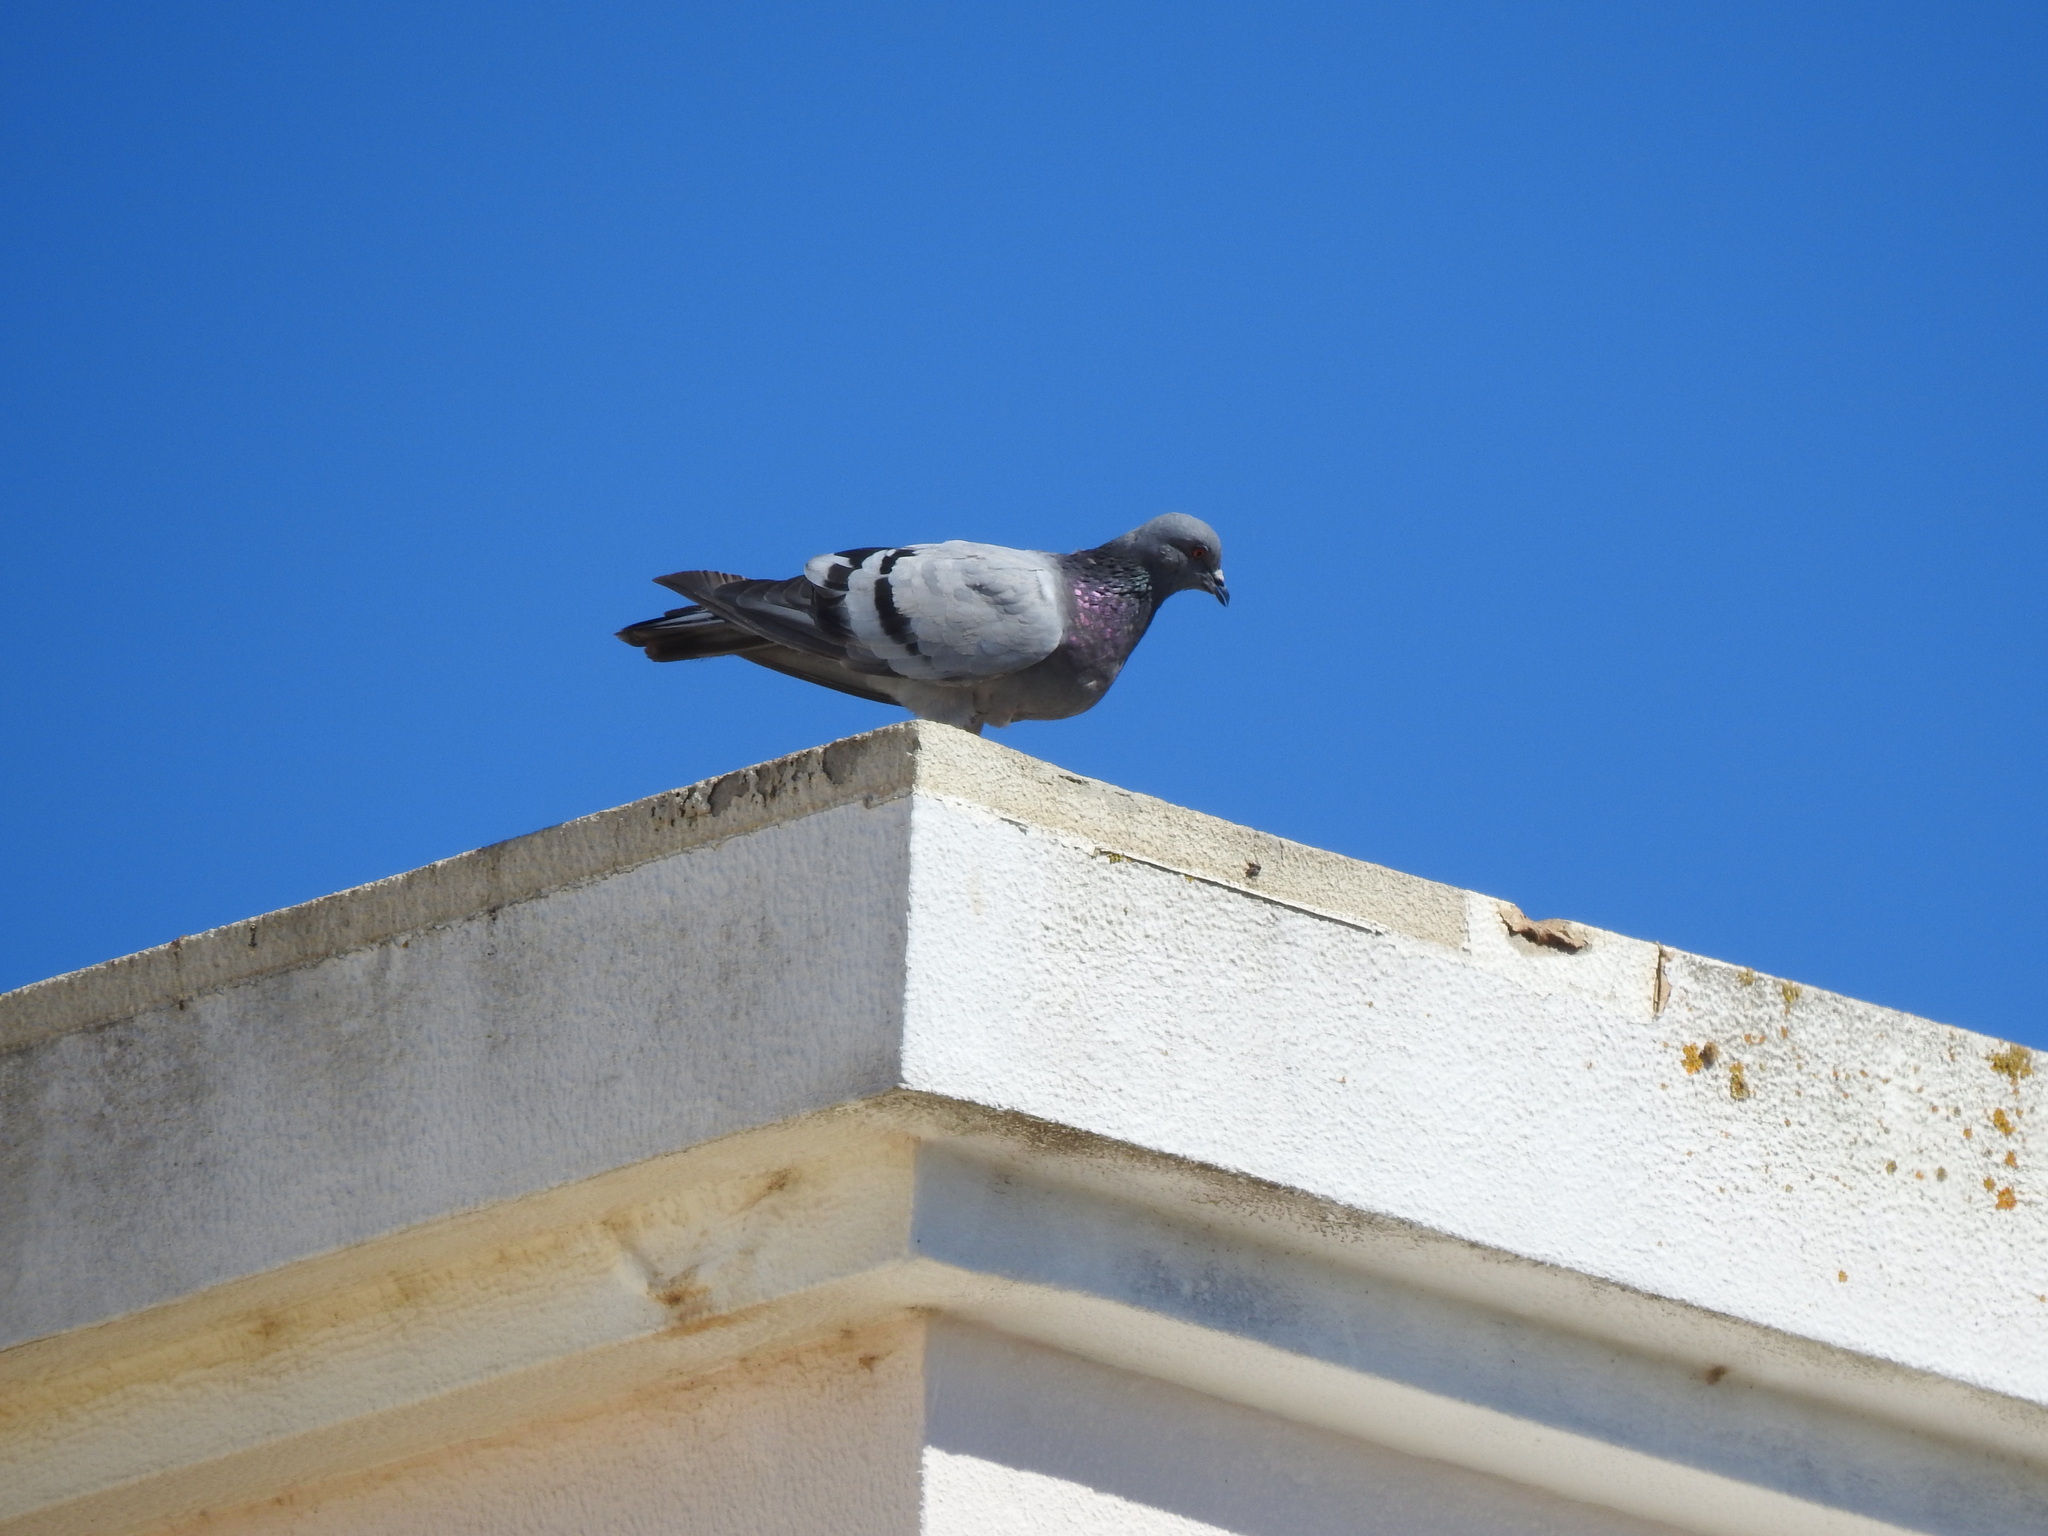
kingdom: Animalia
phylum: Chordata
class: Aves
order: Columbiformes
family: Columbidae
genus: Columba
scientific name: Columba livia
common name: Rock pigeon
